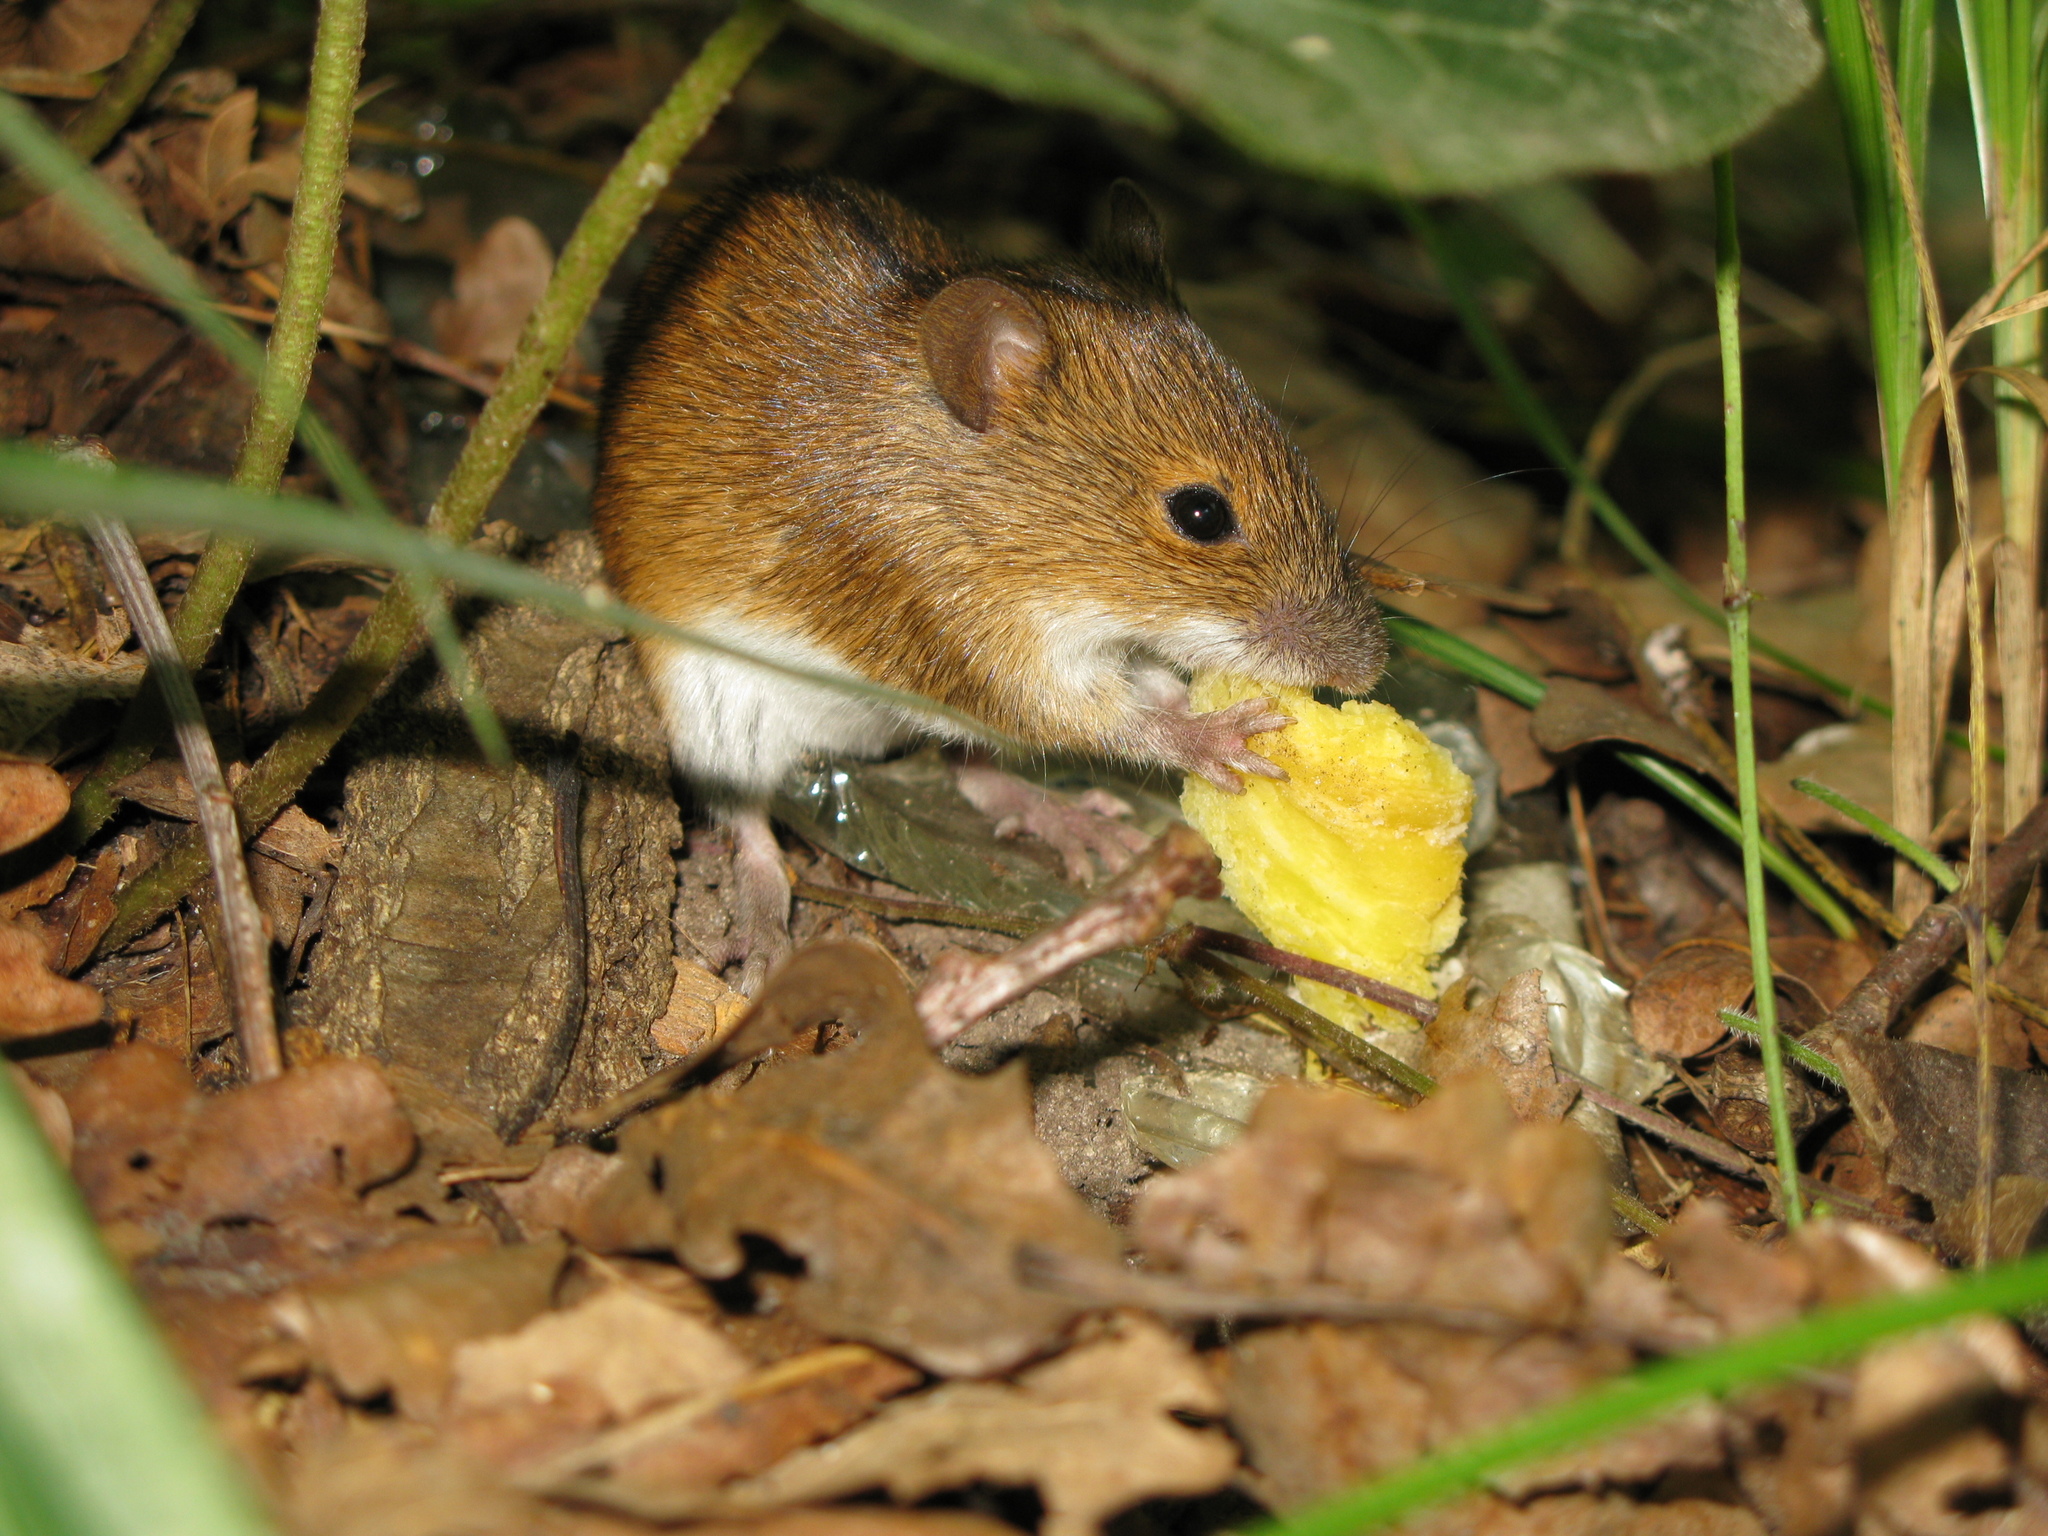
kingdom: Animalia
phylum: Chordata
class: Mammalia
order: Rodentia
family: Muridae
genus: Apodemus
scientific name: Apodemus agrarius
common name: Striped field mouse
